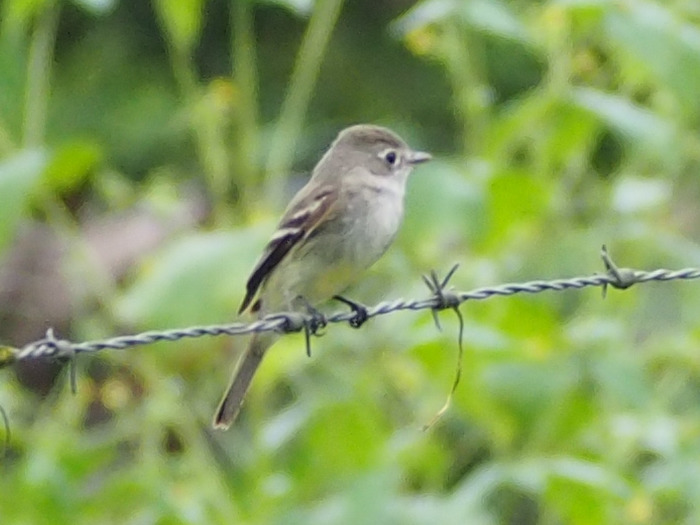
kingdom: Animalia
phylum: Chordata
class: Aves
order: Passeriformes
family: Tyrannidae
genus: Empidonax
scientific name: Empidonax minimus
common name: Least flycatcher
